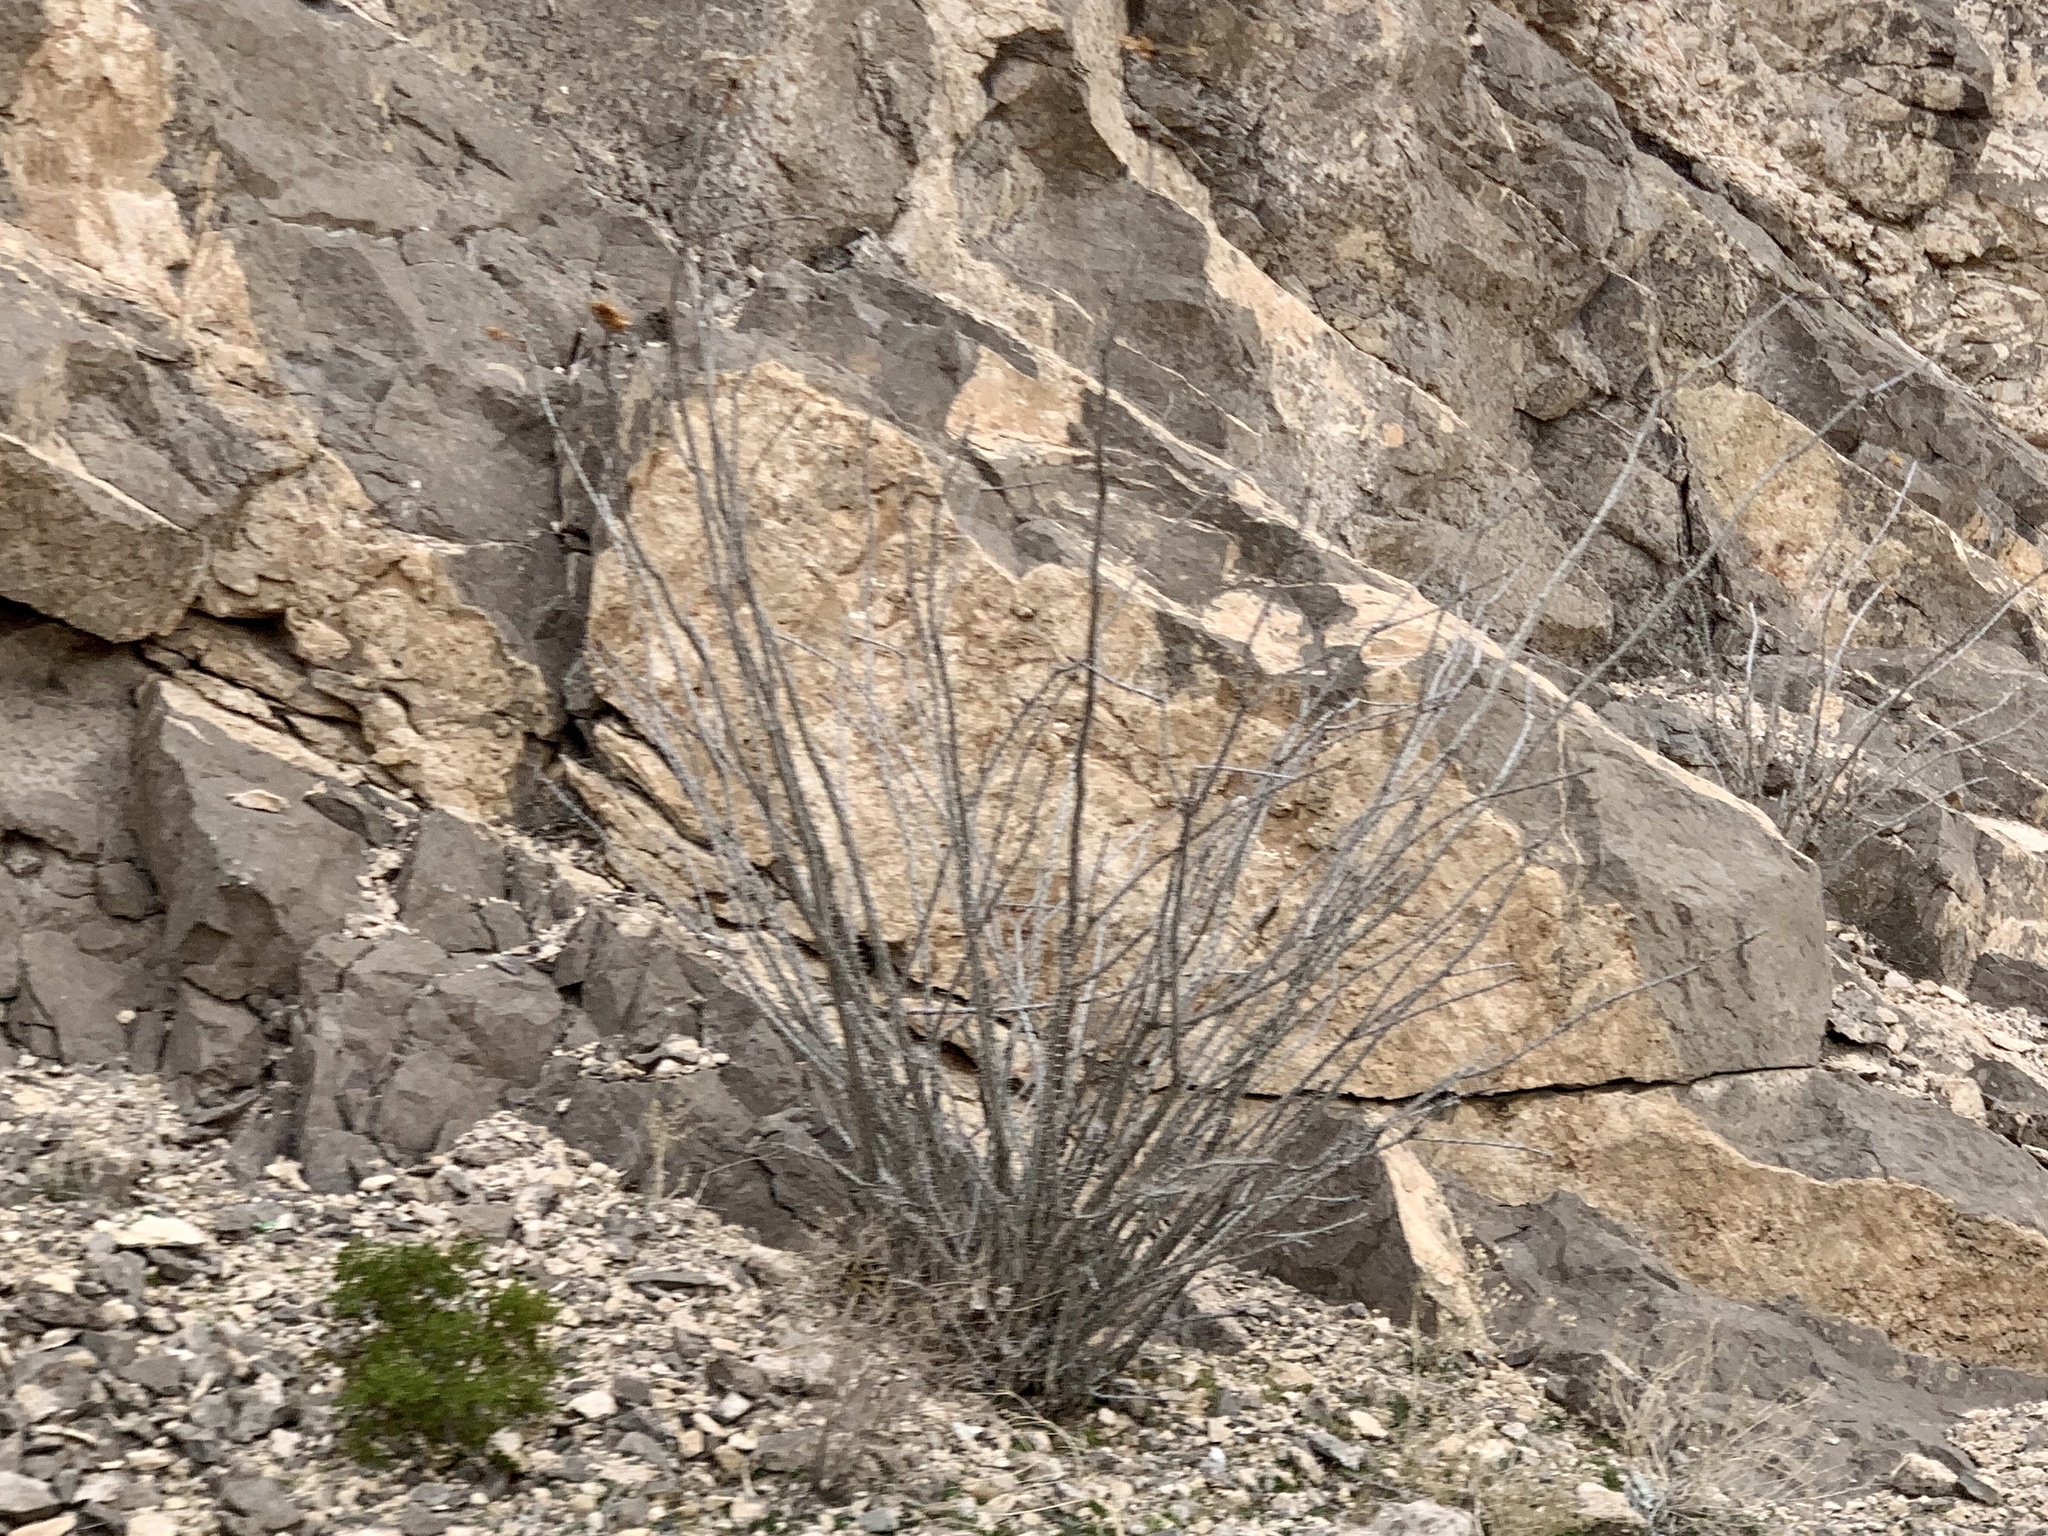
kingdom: Plantae
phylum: Tracheophyta
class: Magnoliopsida
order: Ericales
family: Fouquieriaceae
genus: Fouquieria
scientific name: Fouquieria splendens
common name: Vine-cactus
